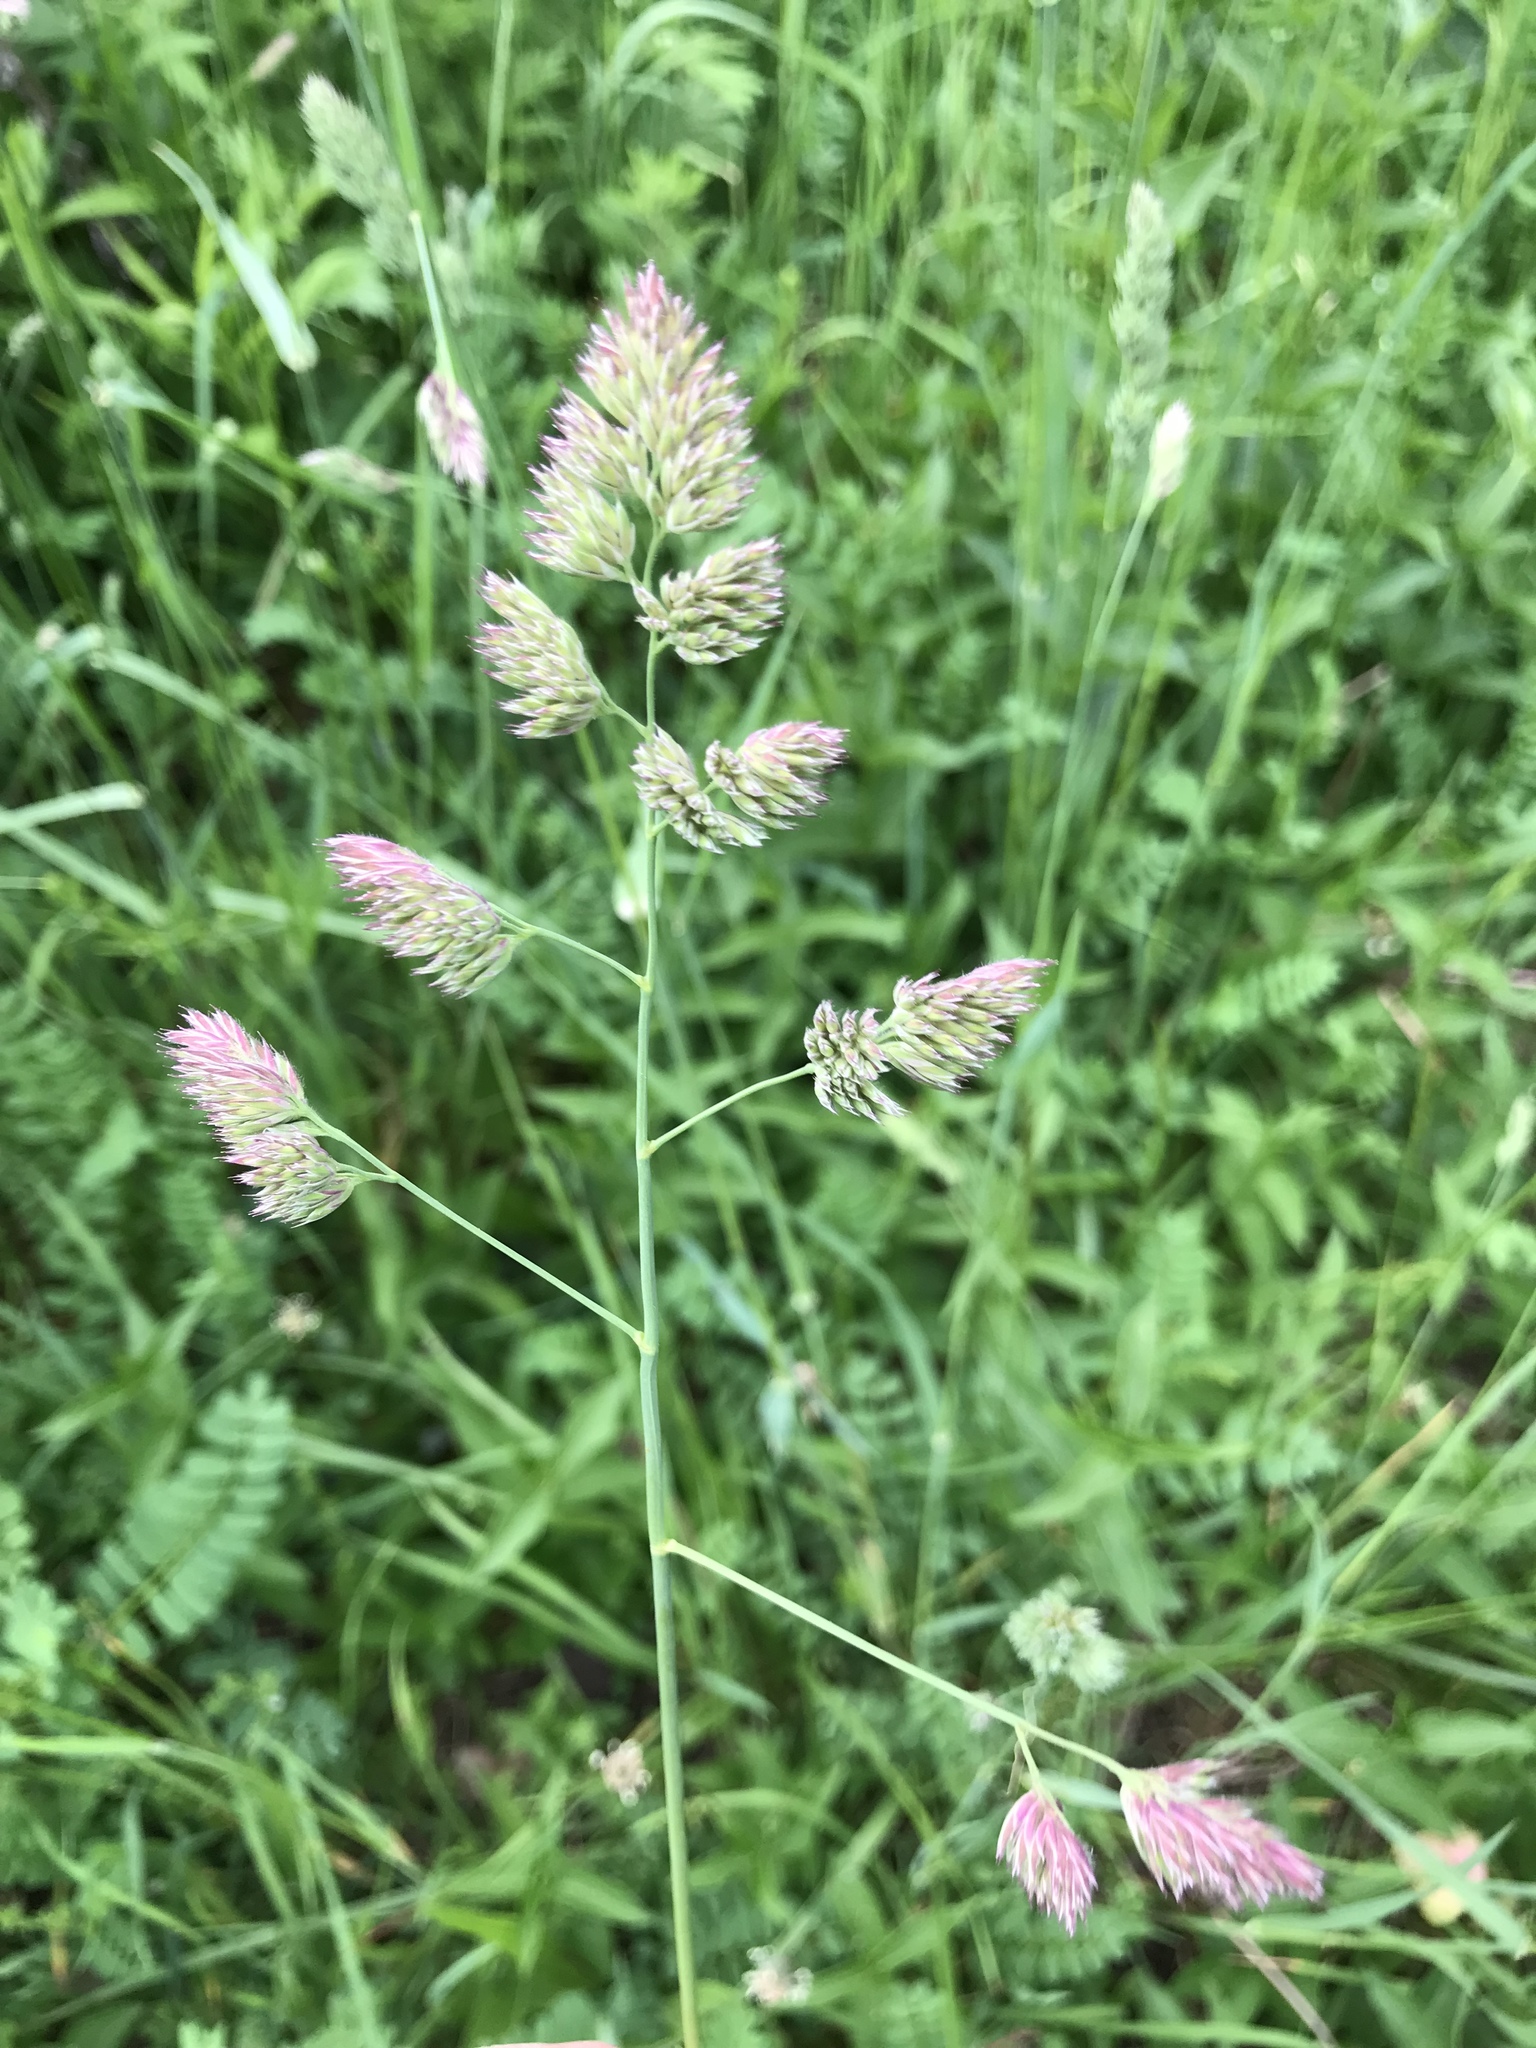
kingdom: Plantae
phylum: Tracheophyta
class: Liliopsida
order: Poales
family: Poaceae
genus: Dactylis
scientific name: Dactylis glomerata
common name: Orchardgrass
